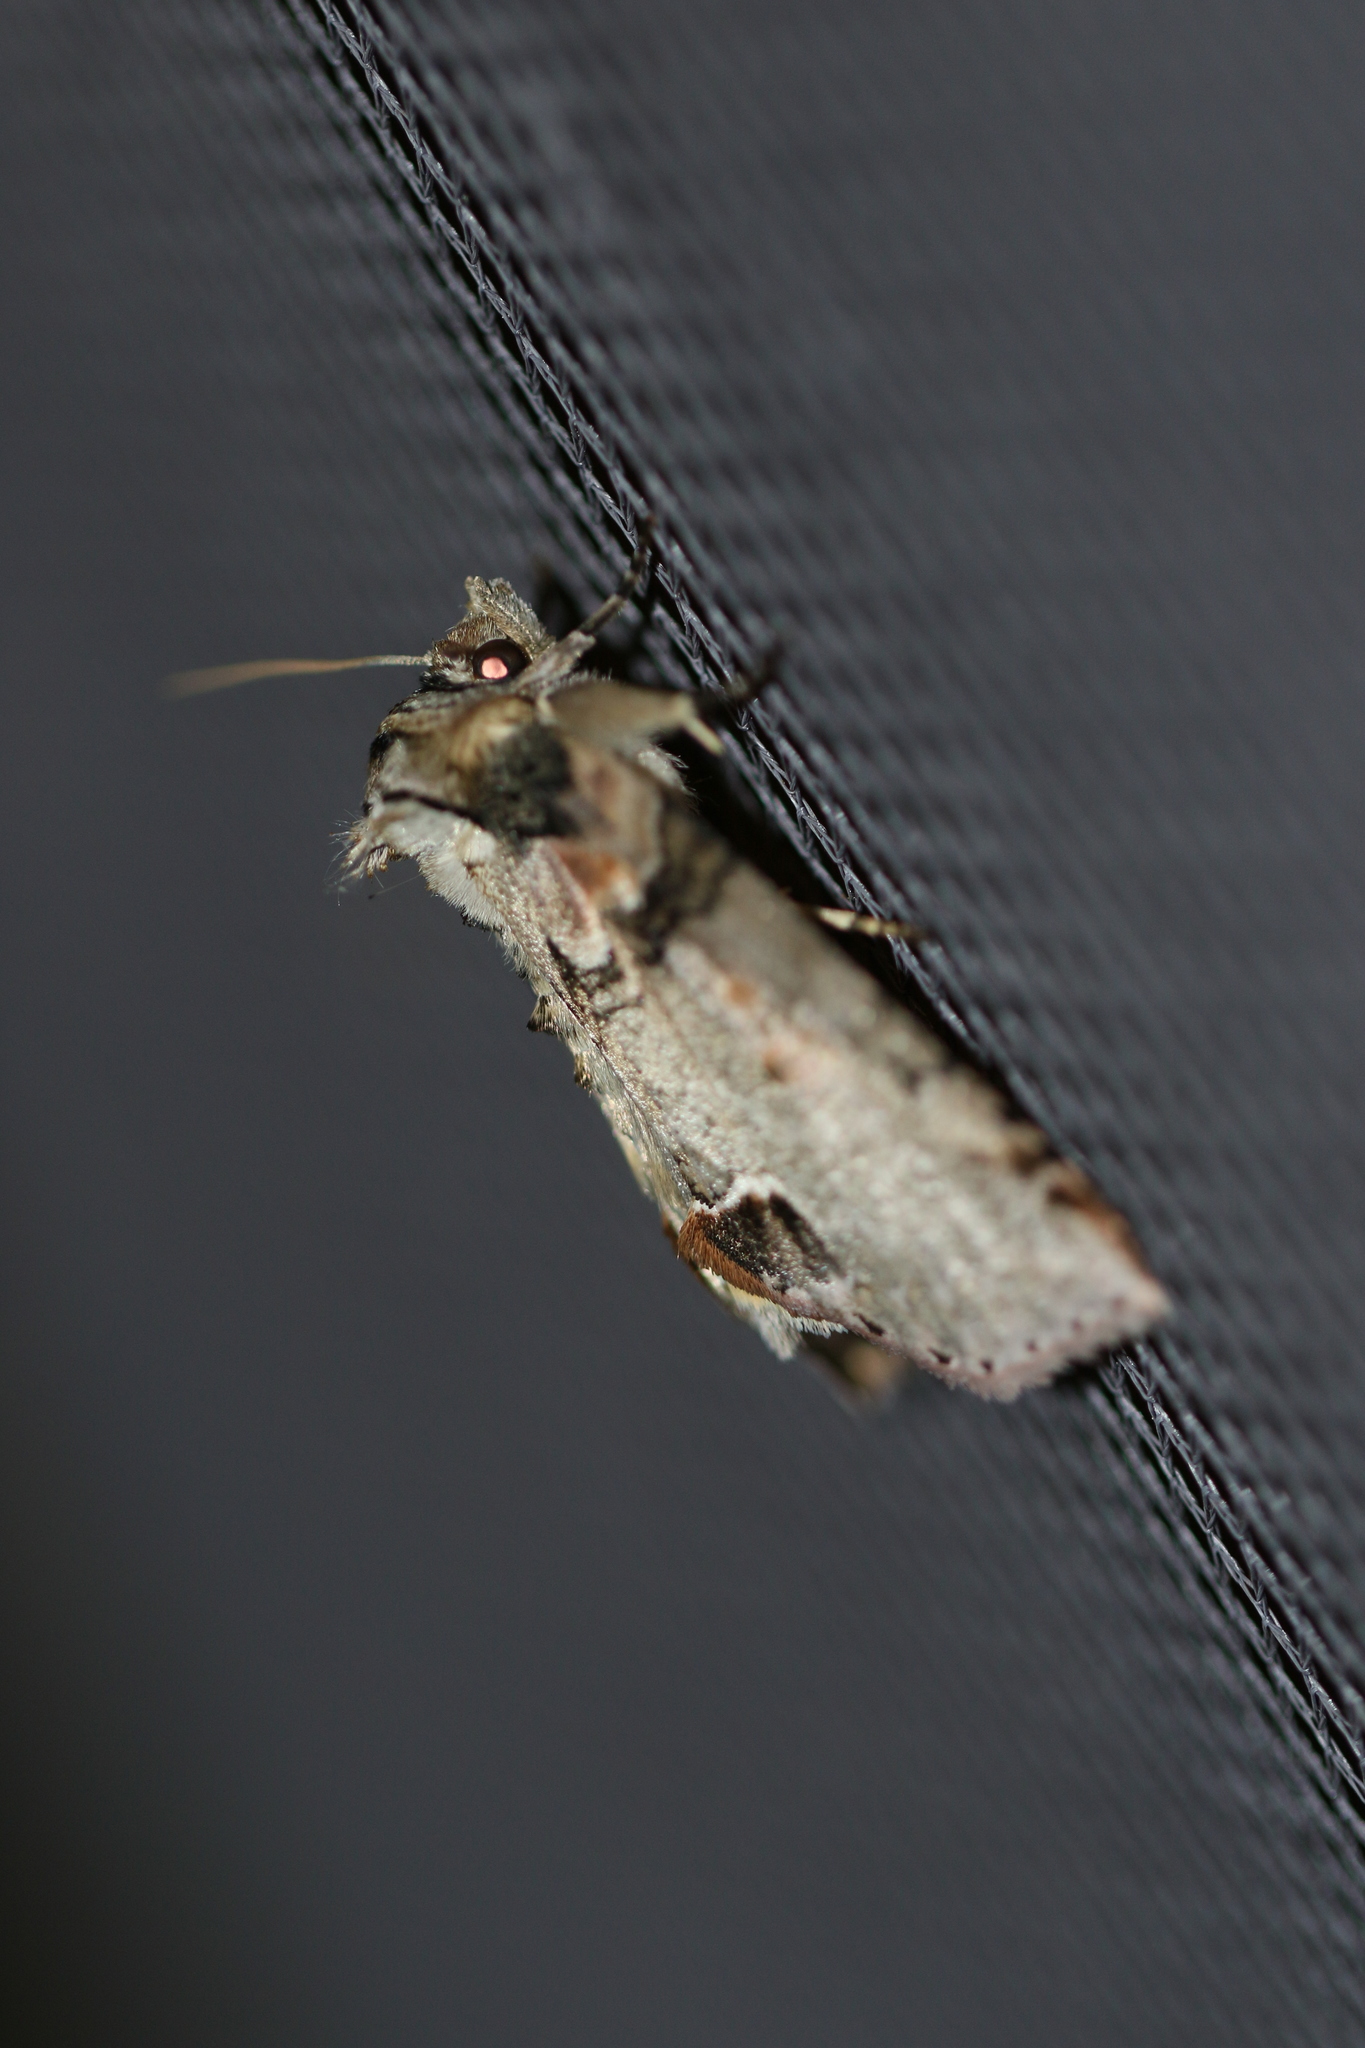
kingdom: Animalia
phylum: Arthropoda
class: Insecta
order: Lepidoptera
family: Drepanidae
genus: Pseudothyatira
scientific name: Pseudothyatira cymatophoroides
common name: Tufted thyatirid moth
